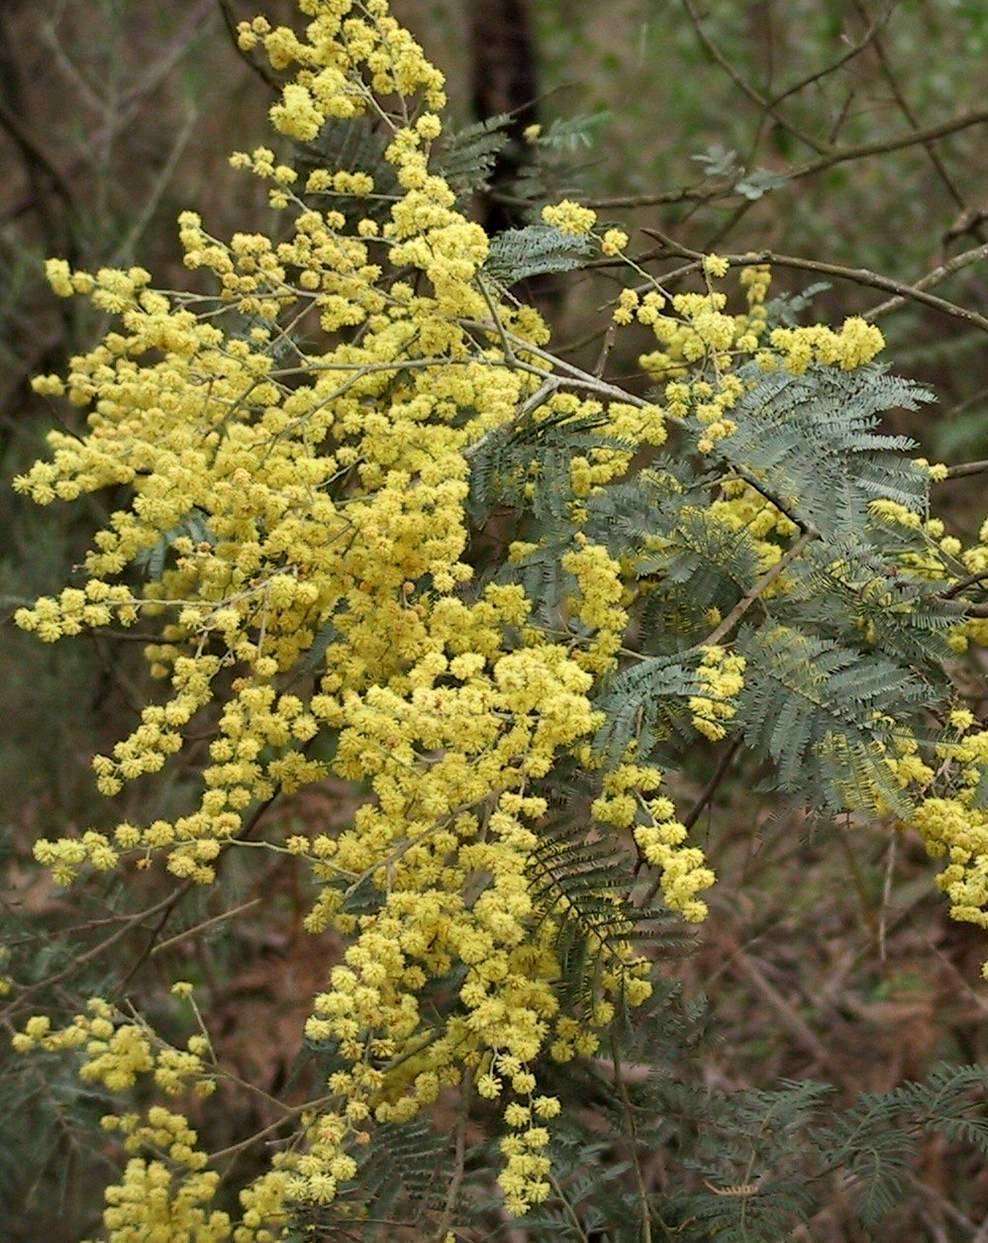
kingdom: Plantae
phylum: Tracheophyta
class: Magnoliopsida
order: Fabales
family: Fabaceae
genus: Acacia
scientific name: Acacia dealbata
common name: Silver wattle
